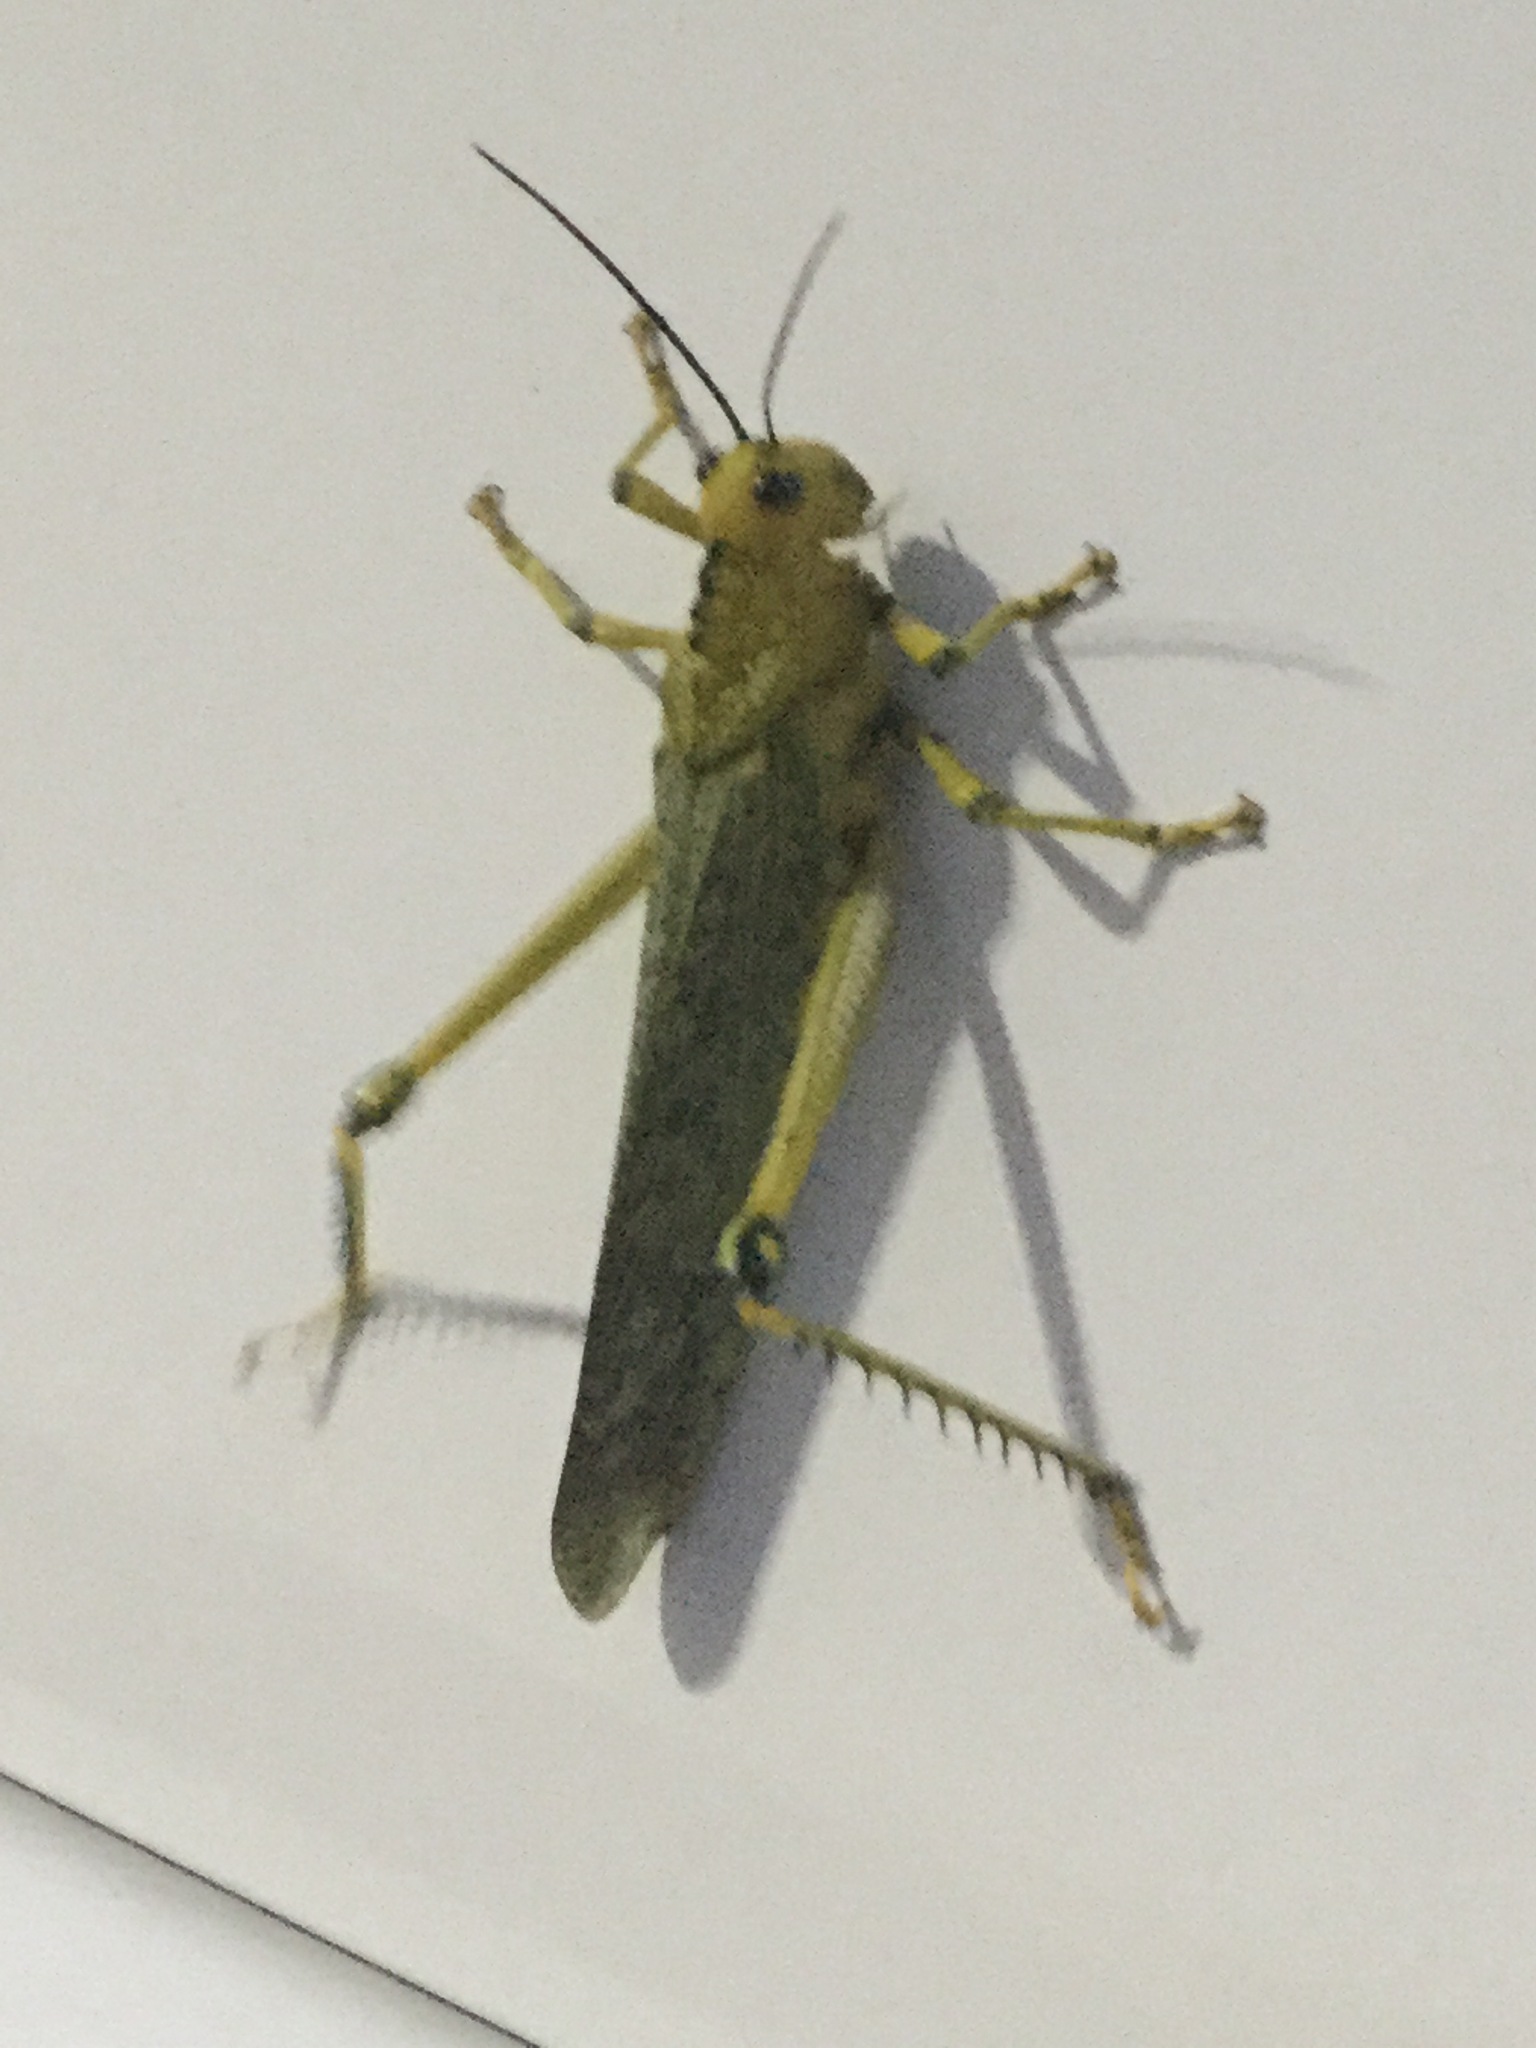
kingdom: Animalia
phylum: Arthropoda
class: Insecta
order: Orthoptera
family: Romaleidae
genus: Tropidacris
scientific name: Tropidacris cristata
